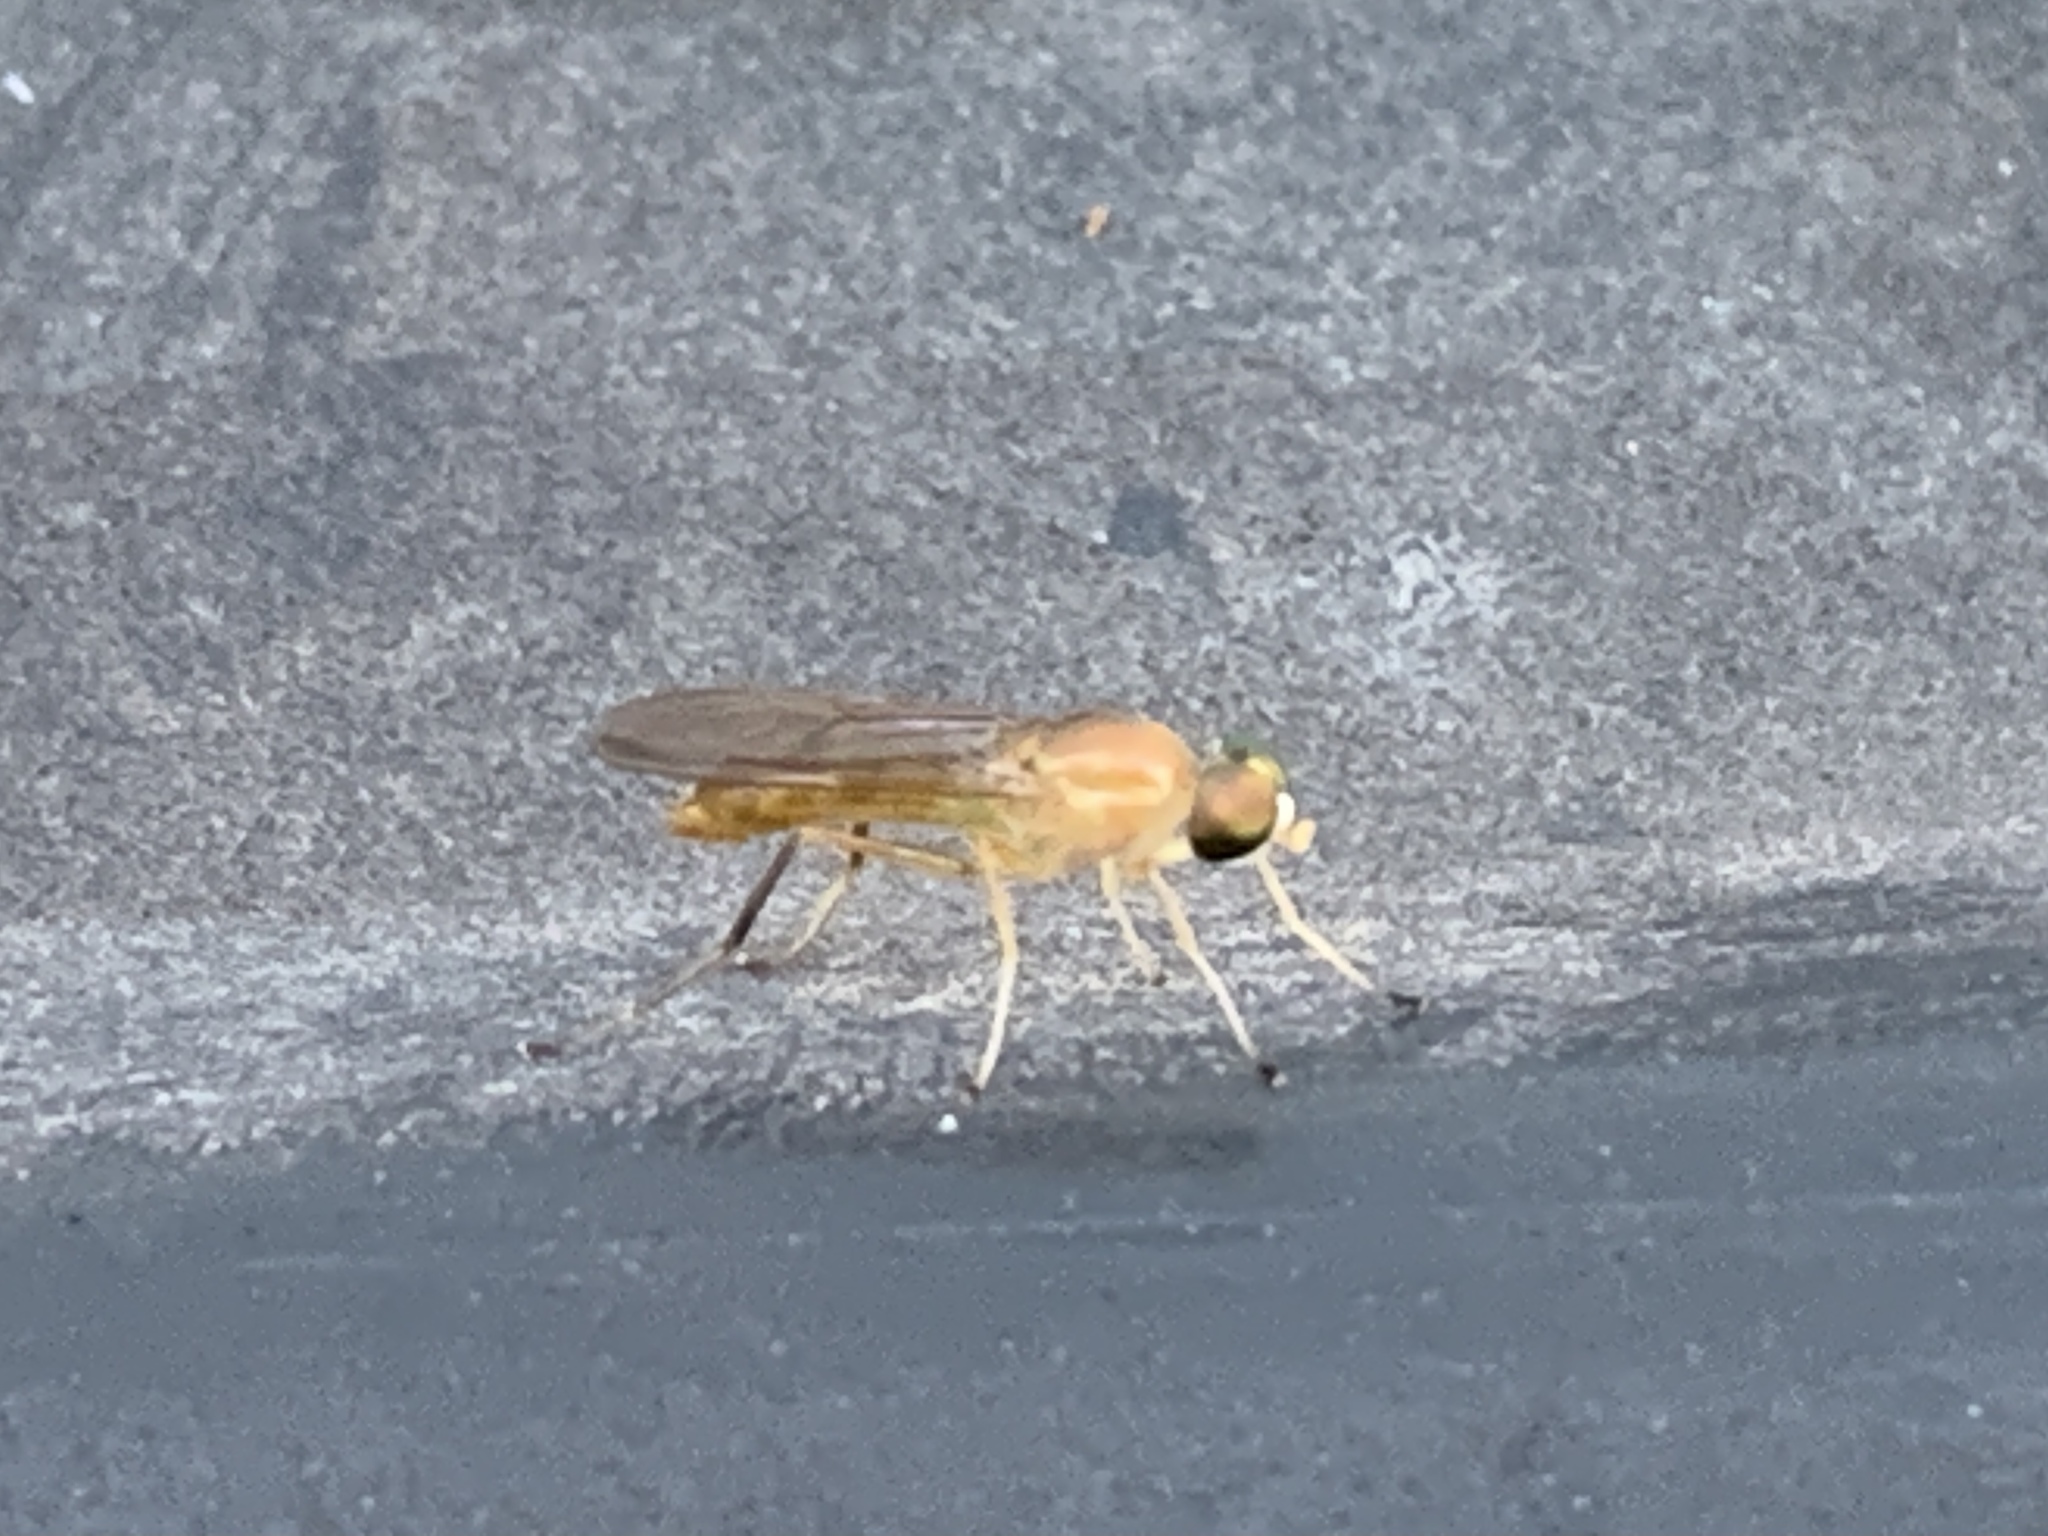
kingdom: Animalia
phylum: Arthropoda
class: Insecta
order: Diptera
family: Stratiomyidae
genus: Ptecticus
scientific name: Ptecticus trivittatus
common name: Compost fly
